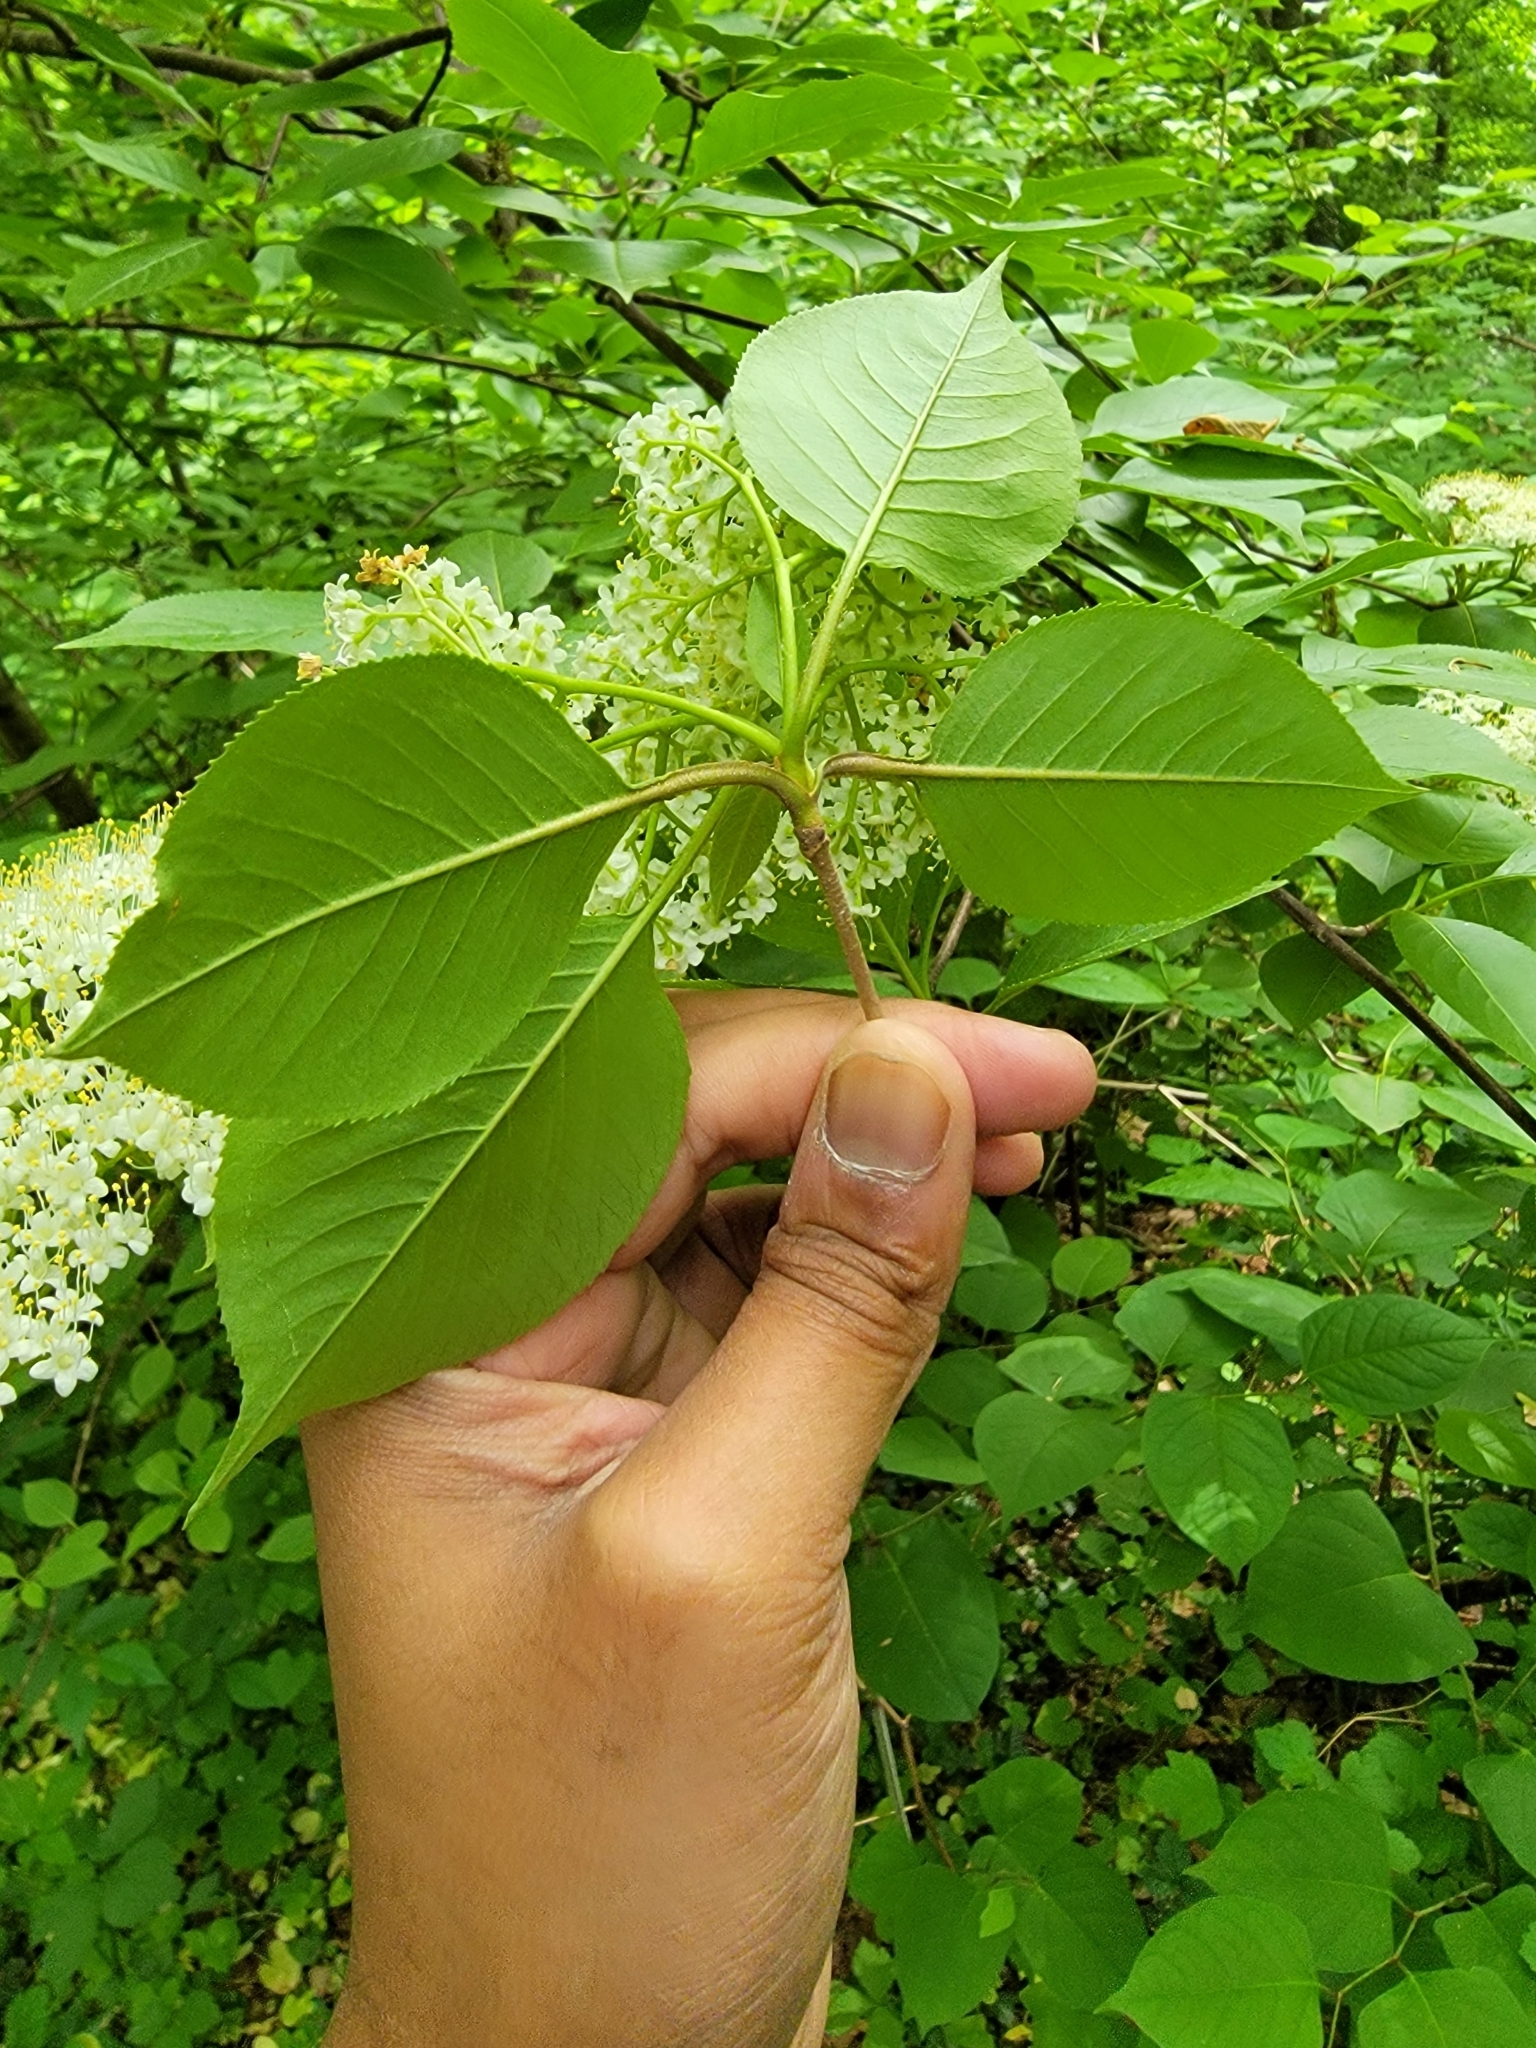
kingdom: Plantae
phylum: Tracheophyta
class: Magnoliopsida
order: Dipsacales
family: Viburnaceae
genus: Viburnum
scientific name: Viburnum lentago
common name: Black haw
